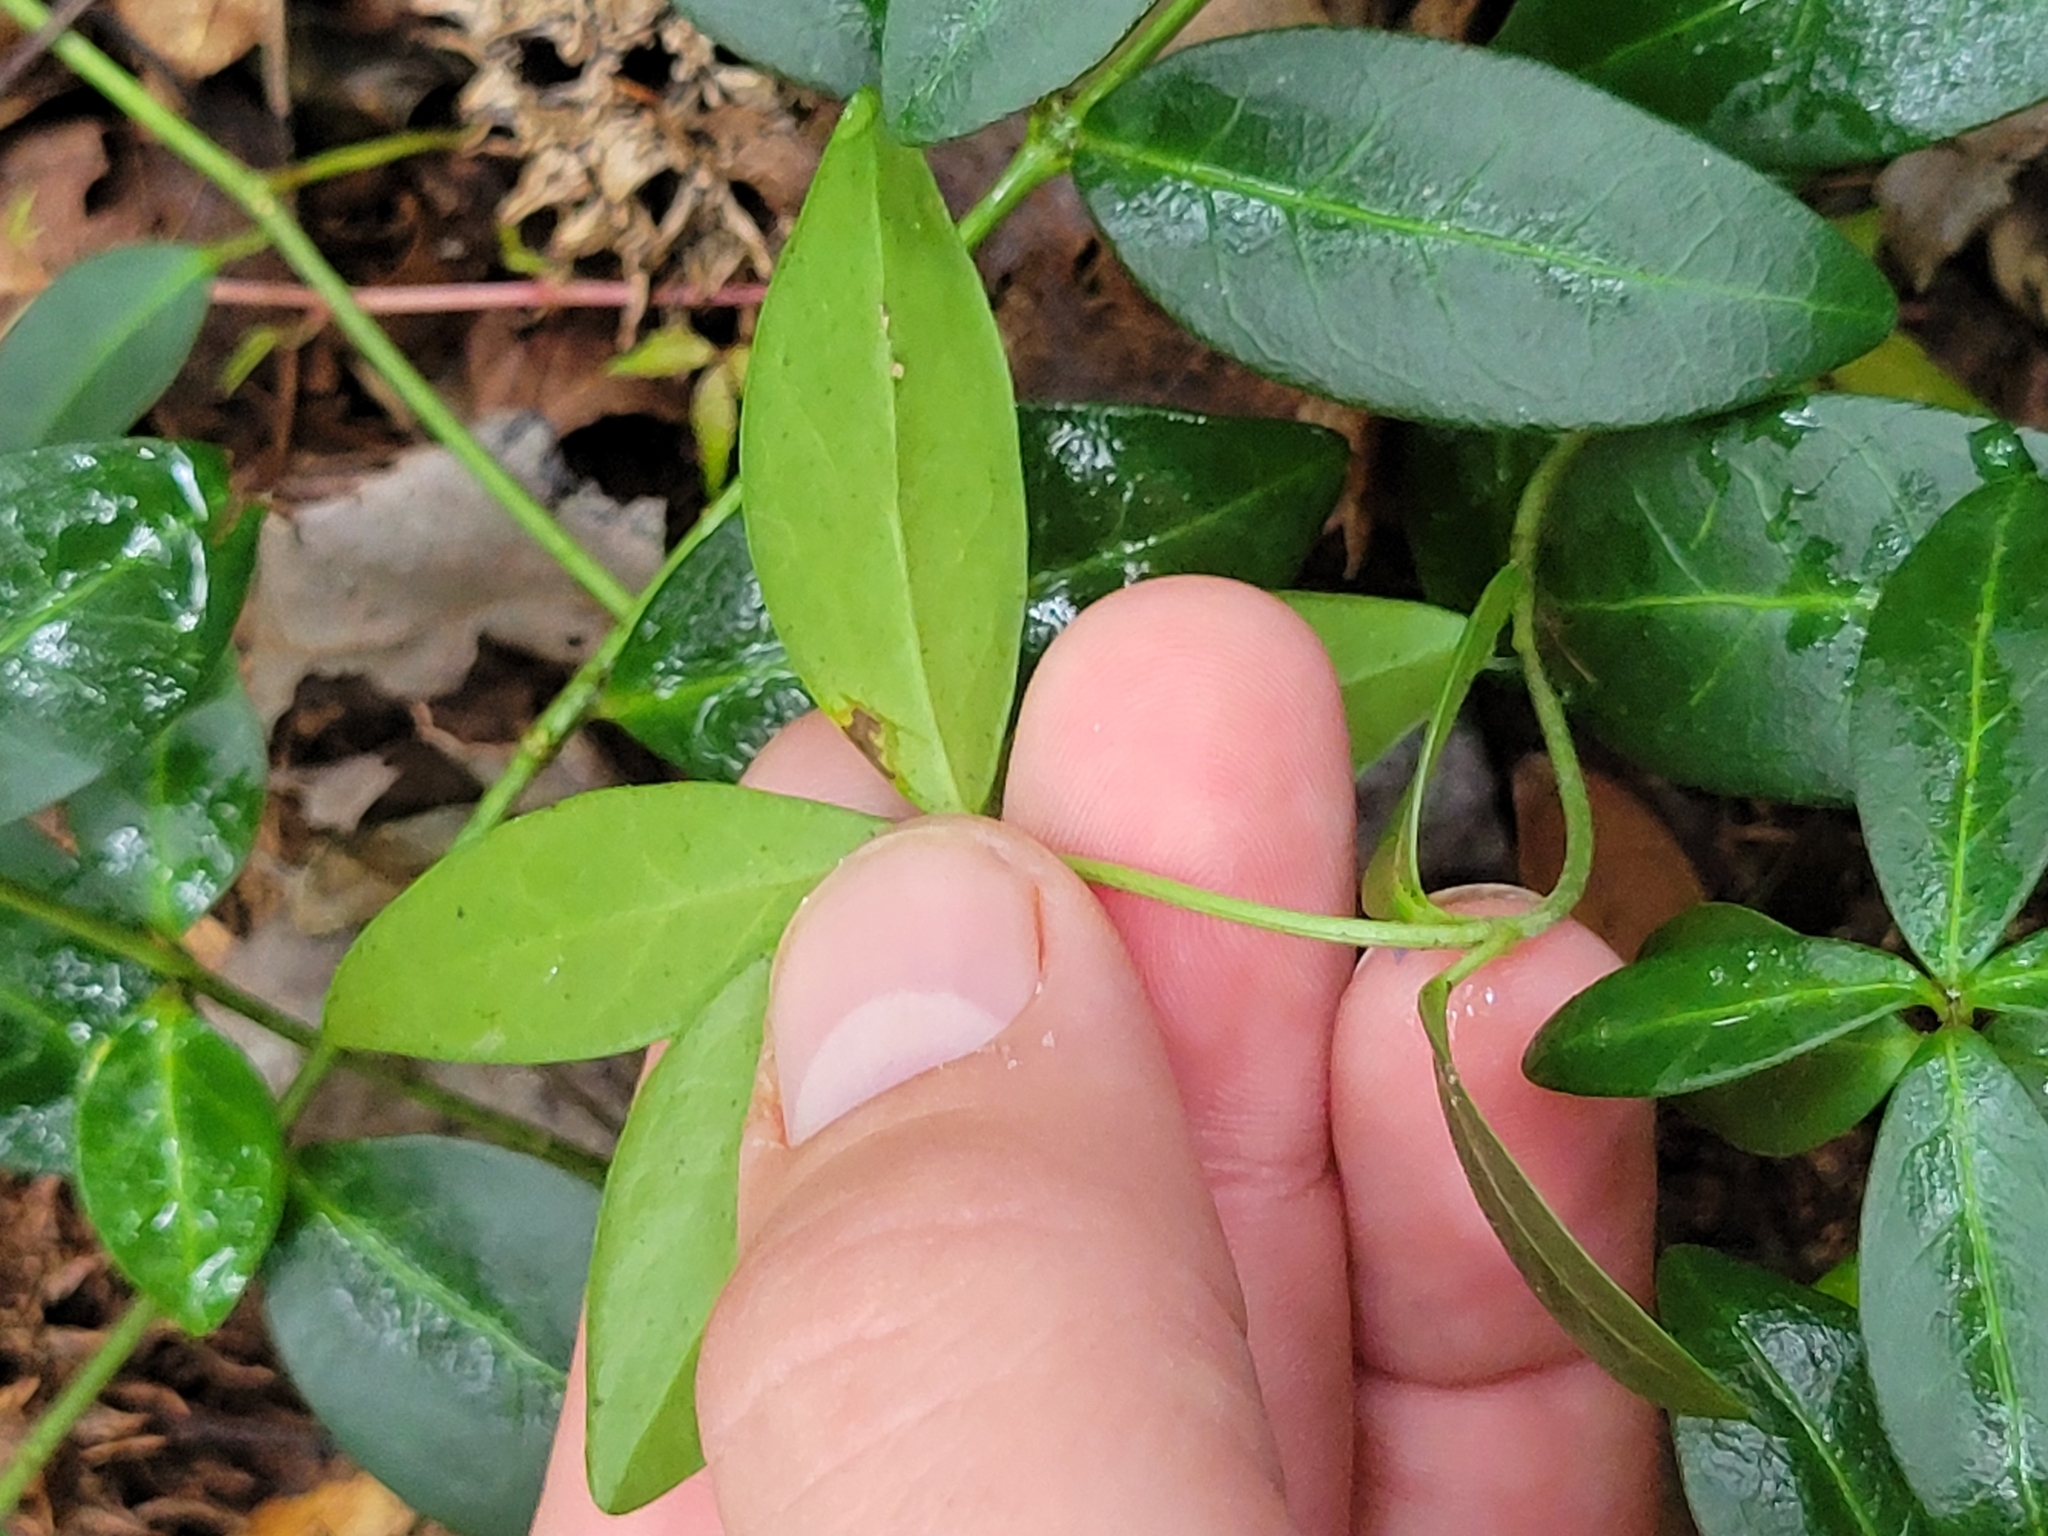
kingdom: Plantae
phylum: Tracheophyta
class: Magnoliopsida
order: Gentianales
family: Apocynaceae
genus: Vinca
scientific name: Vinca minor
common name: Lesser periwinkle
